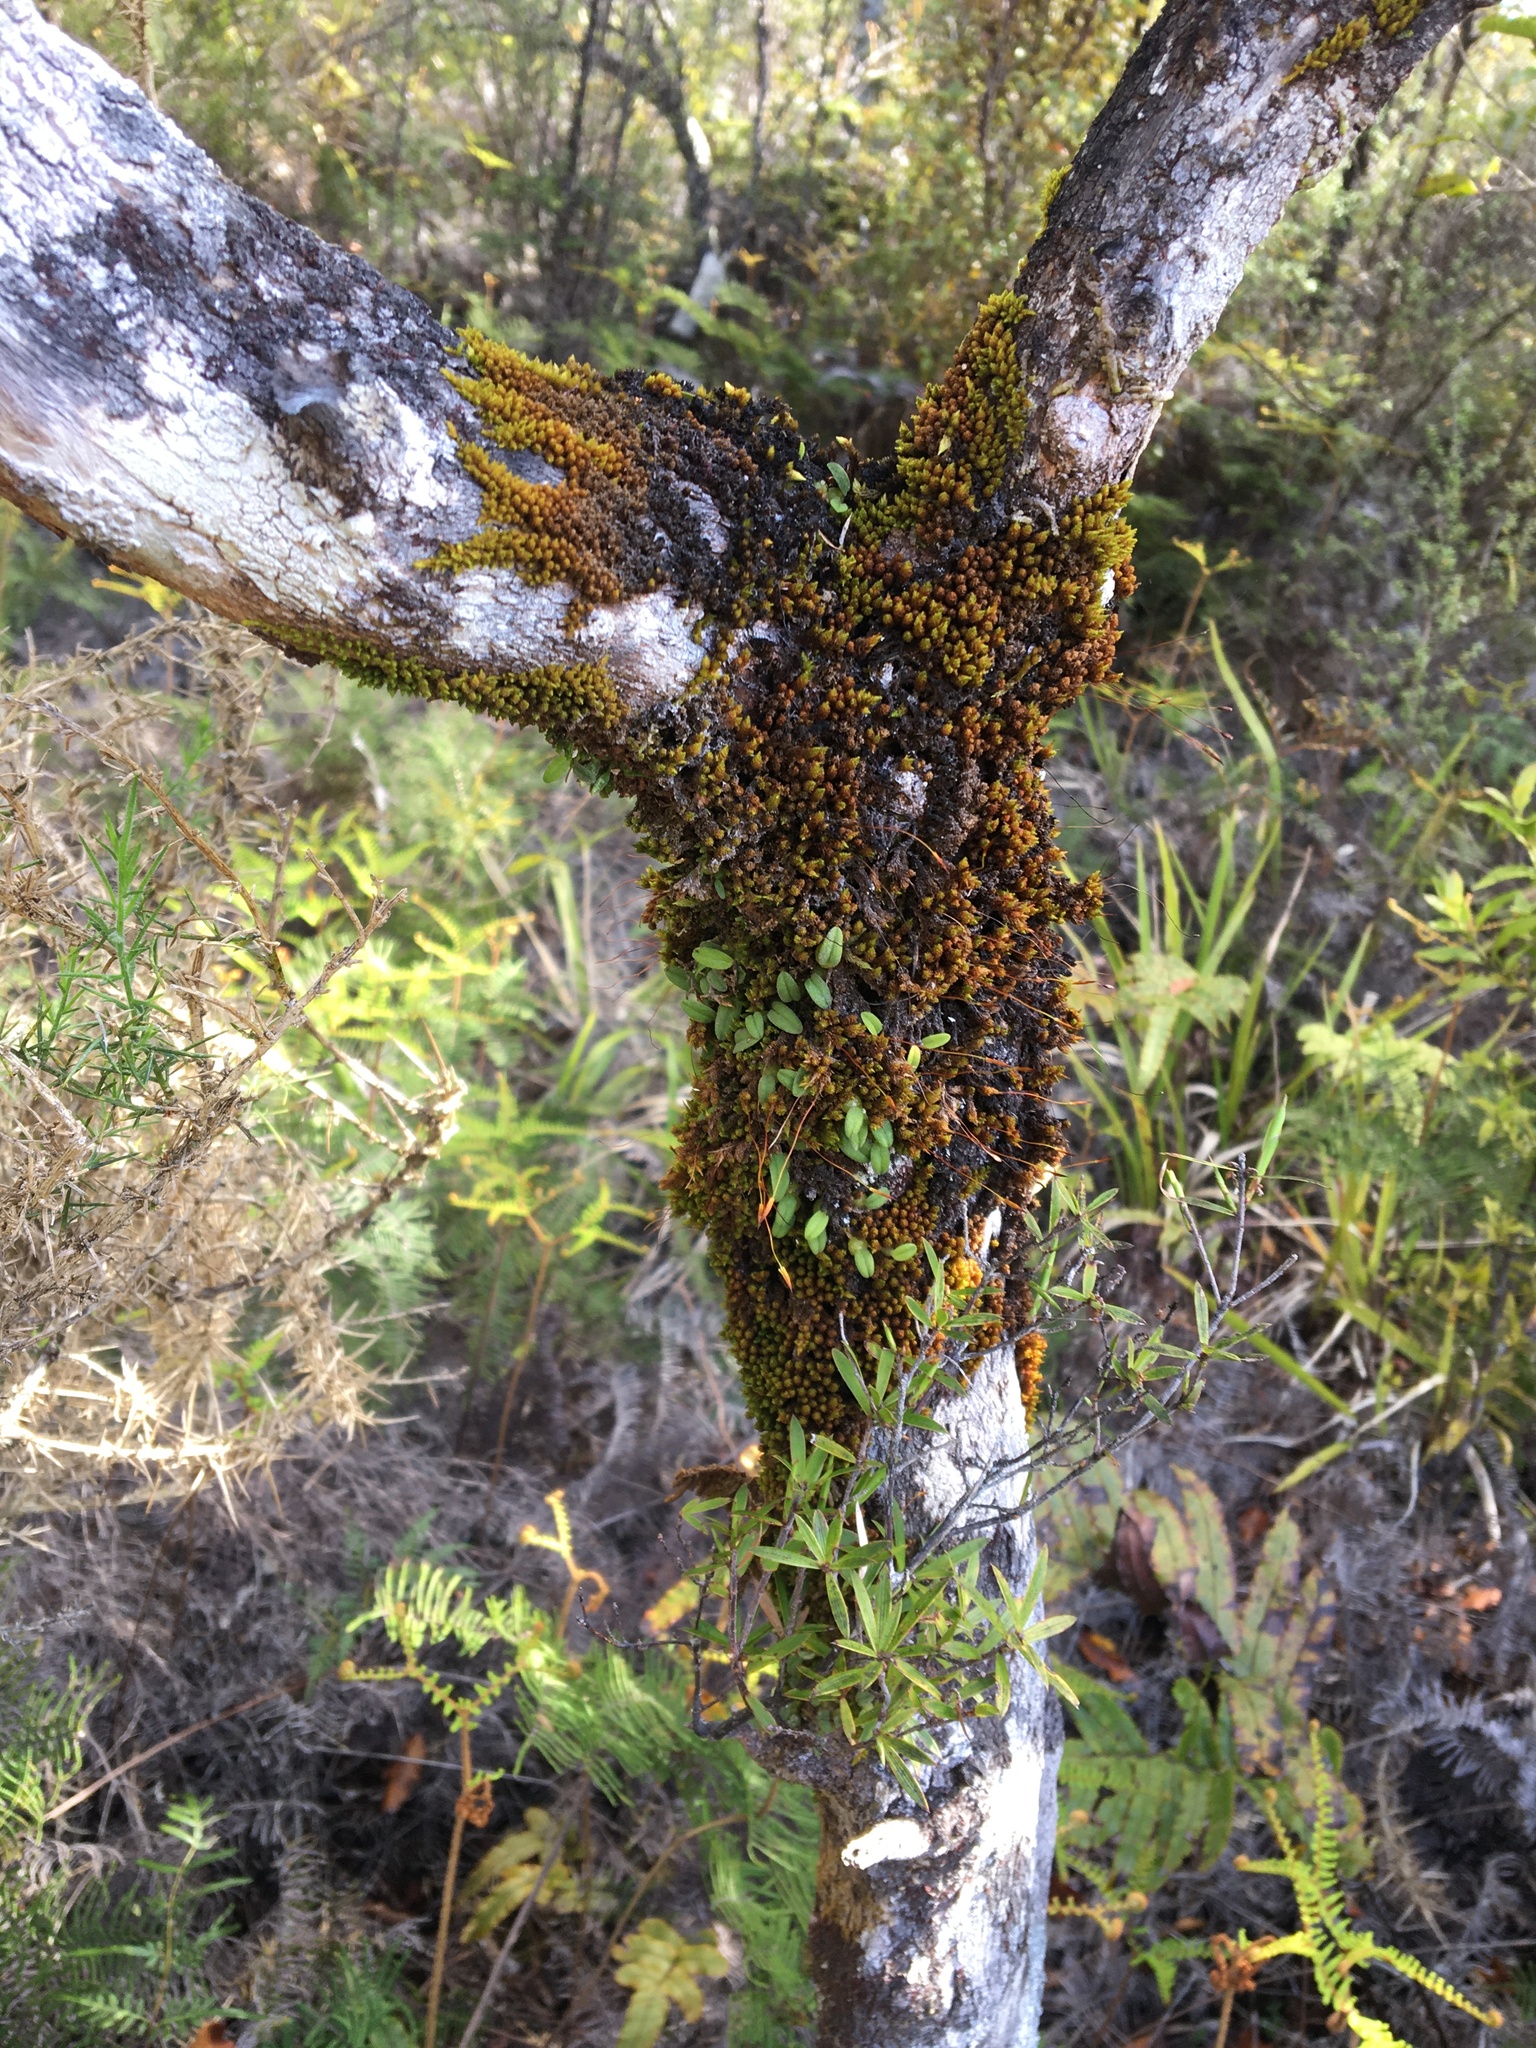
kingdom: Plantae
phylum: Tracheophyta
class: Liliopsida
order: Asparagales
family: Orchidaceae
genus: Bulbophyllum
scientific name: Bulbophyllum pygmaeum
